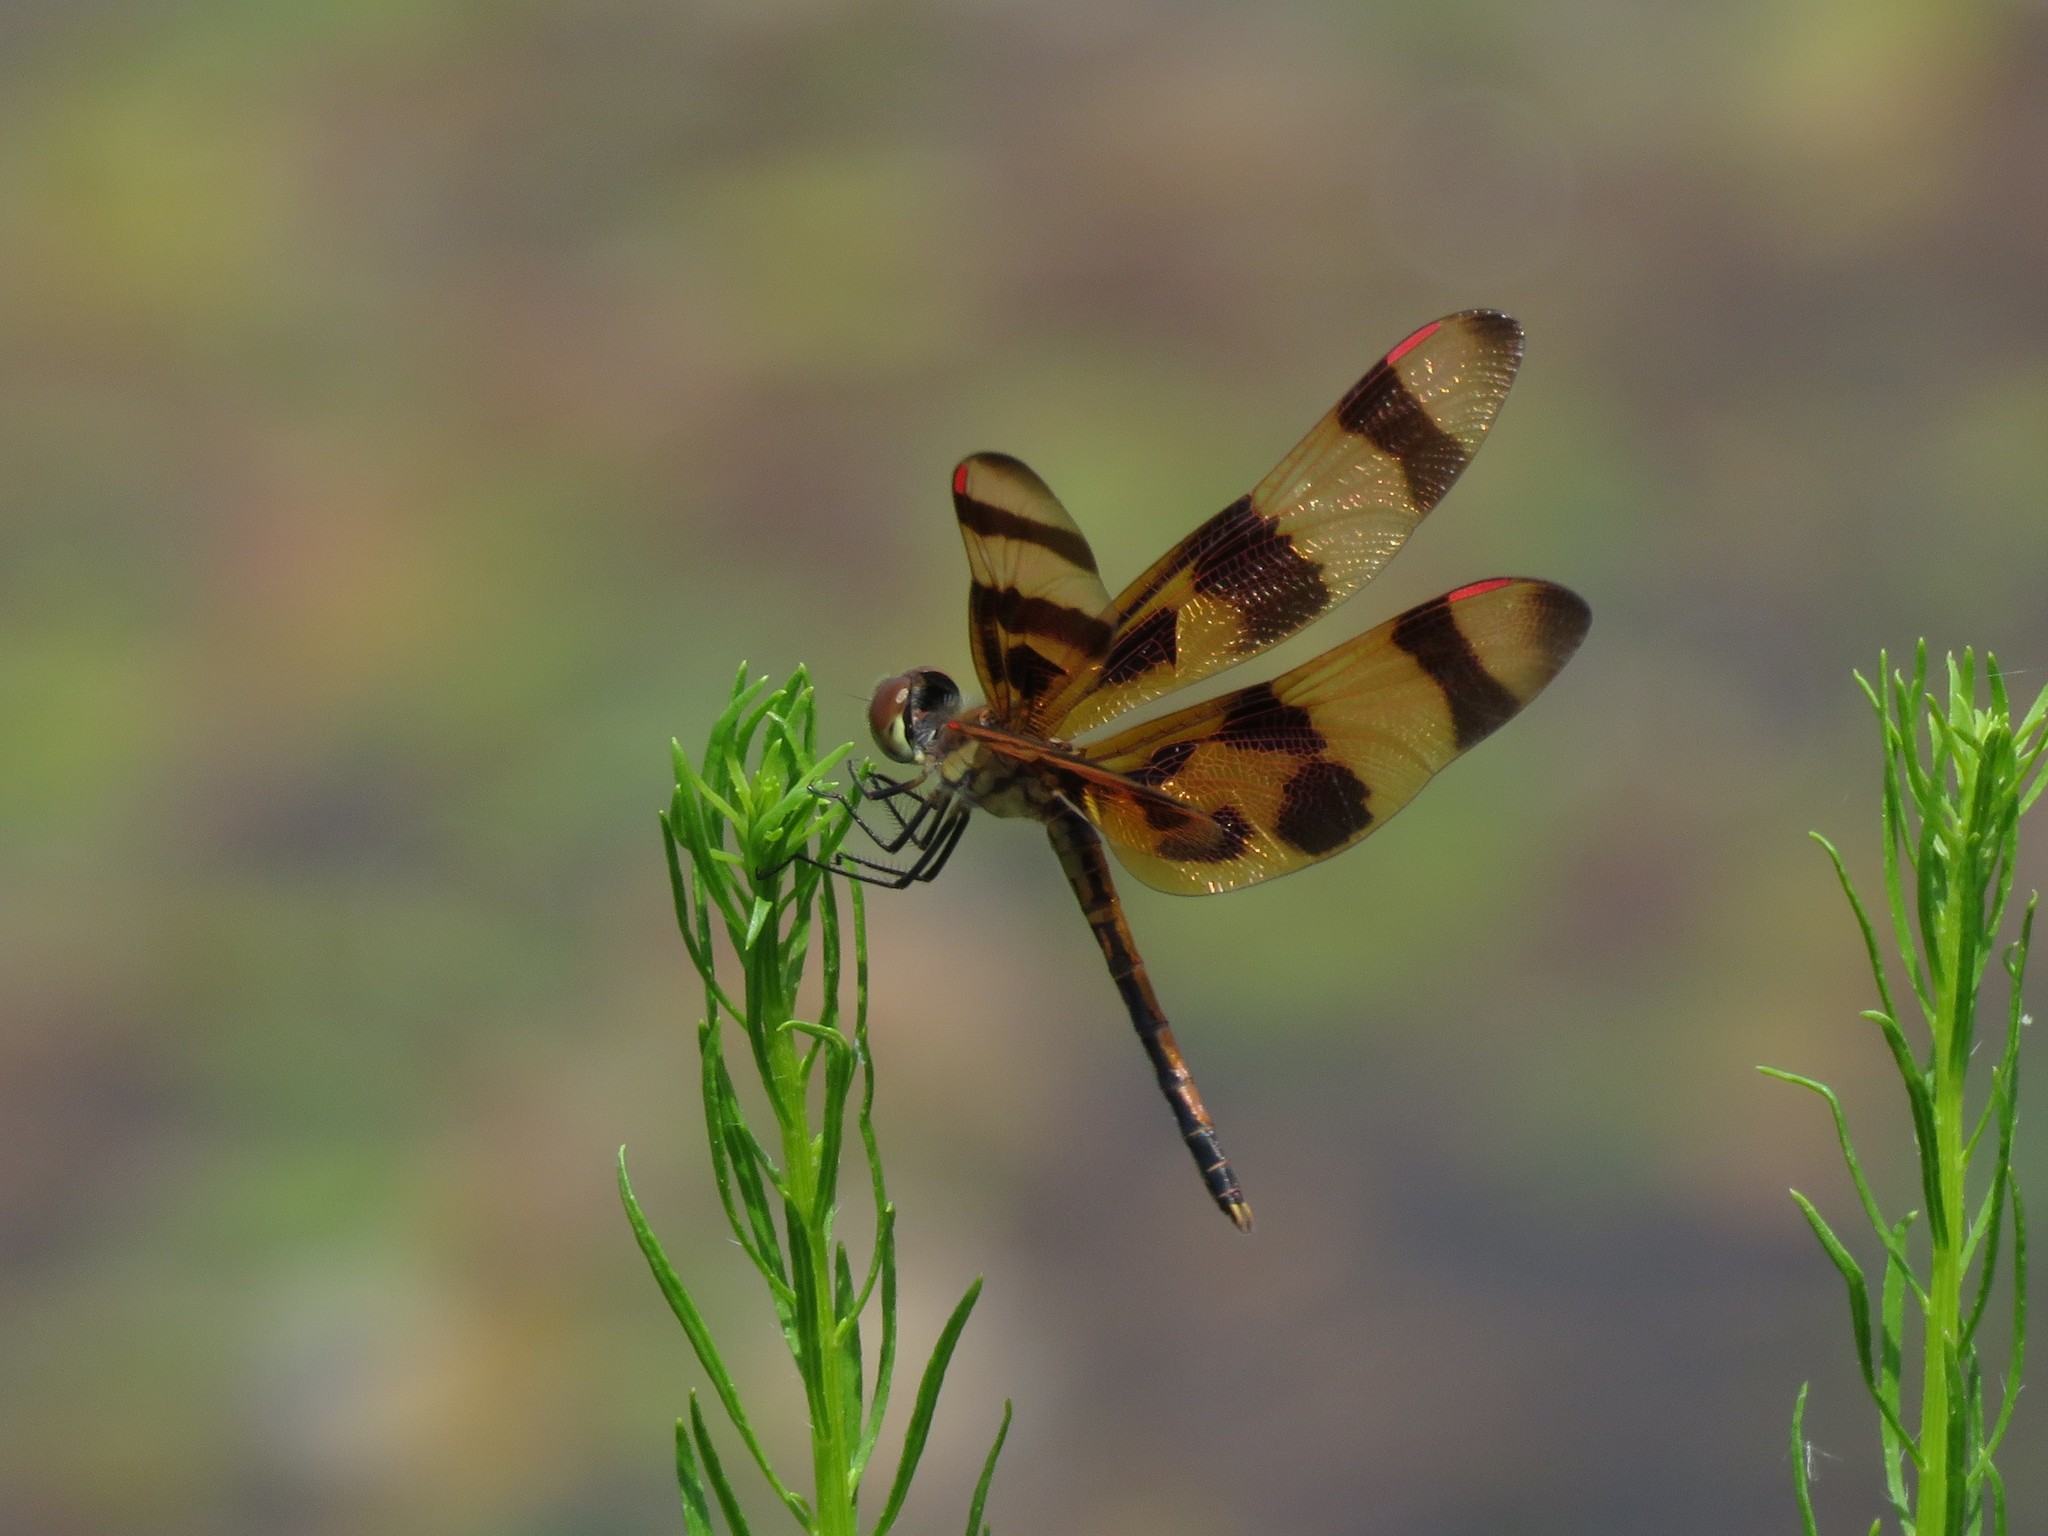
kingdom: Animalia
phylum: Arthropoda
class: Insecta
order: Odonata
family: Libellulidae
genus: Celithemis
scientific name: Celithemis eponina
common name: Halloween pennant
